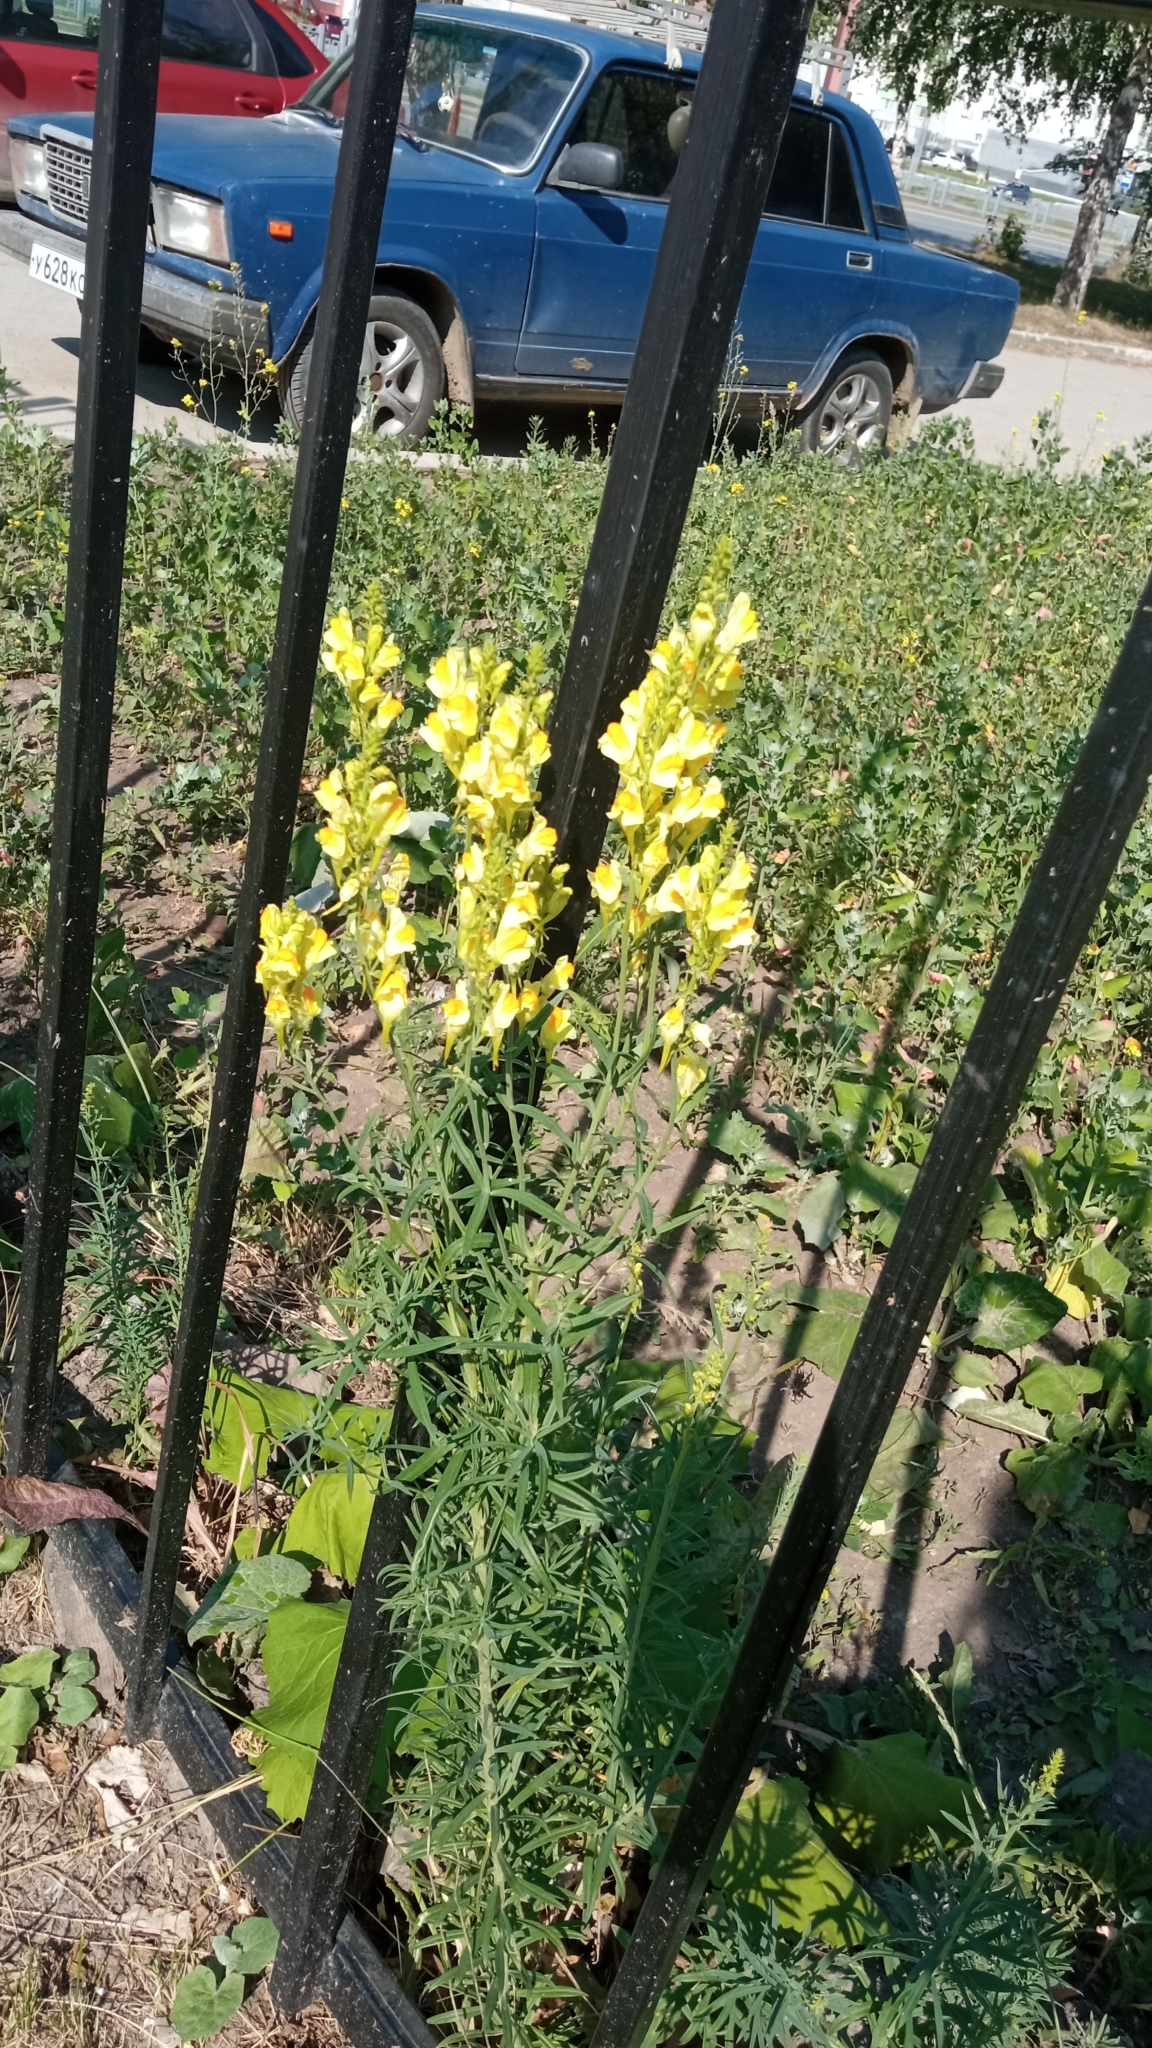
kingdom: Plantae
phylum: Tracheophyta
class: Magnoliopsida
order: Lamiales
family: Plantaginaceae
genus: Linaria
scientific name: Linaria vulgaris
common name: Butter and eggs
